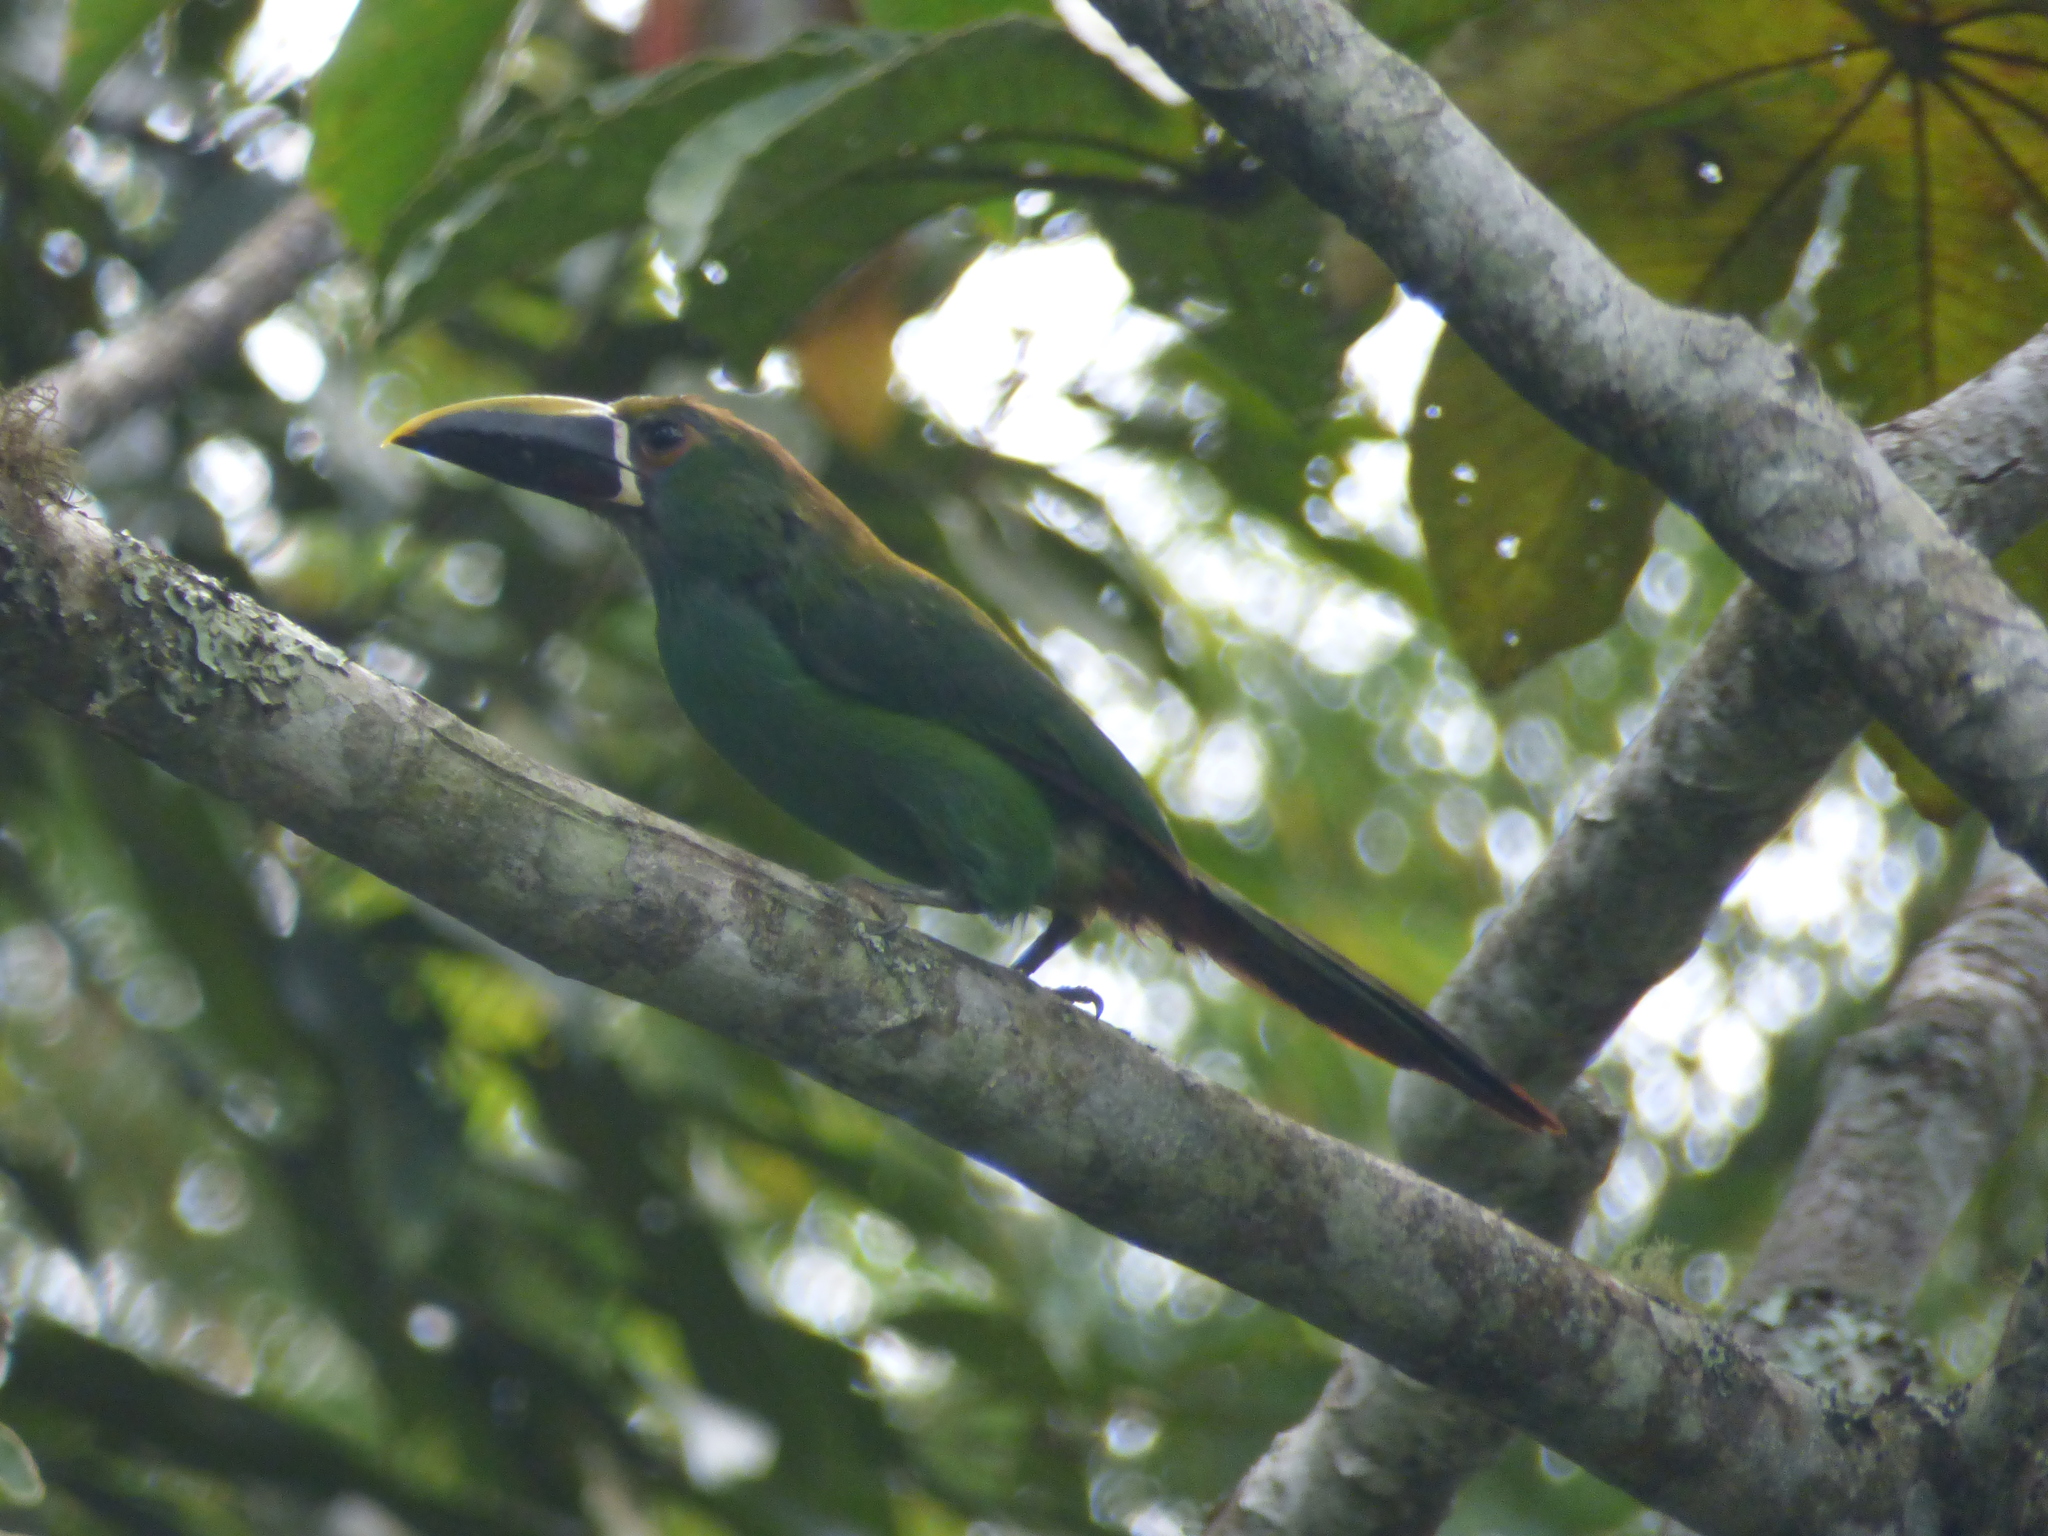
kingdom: Animalia
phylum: Chordata
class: Aves
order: Piciformes
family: Ramphastidae
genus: Aulacorhynchus
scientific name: Aulacorhynchus albivitta
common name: White-throated toucanet
